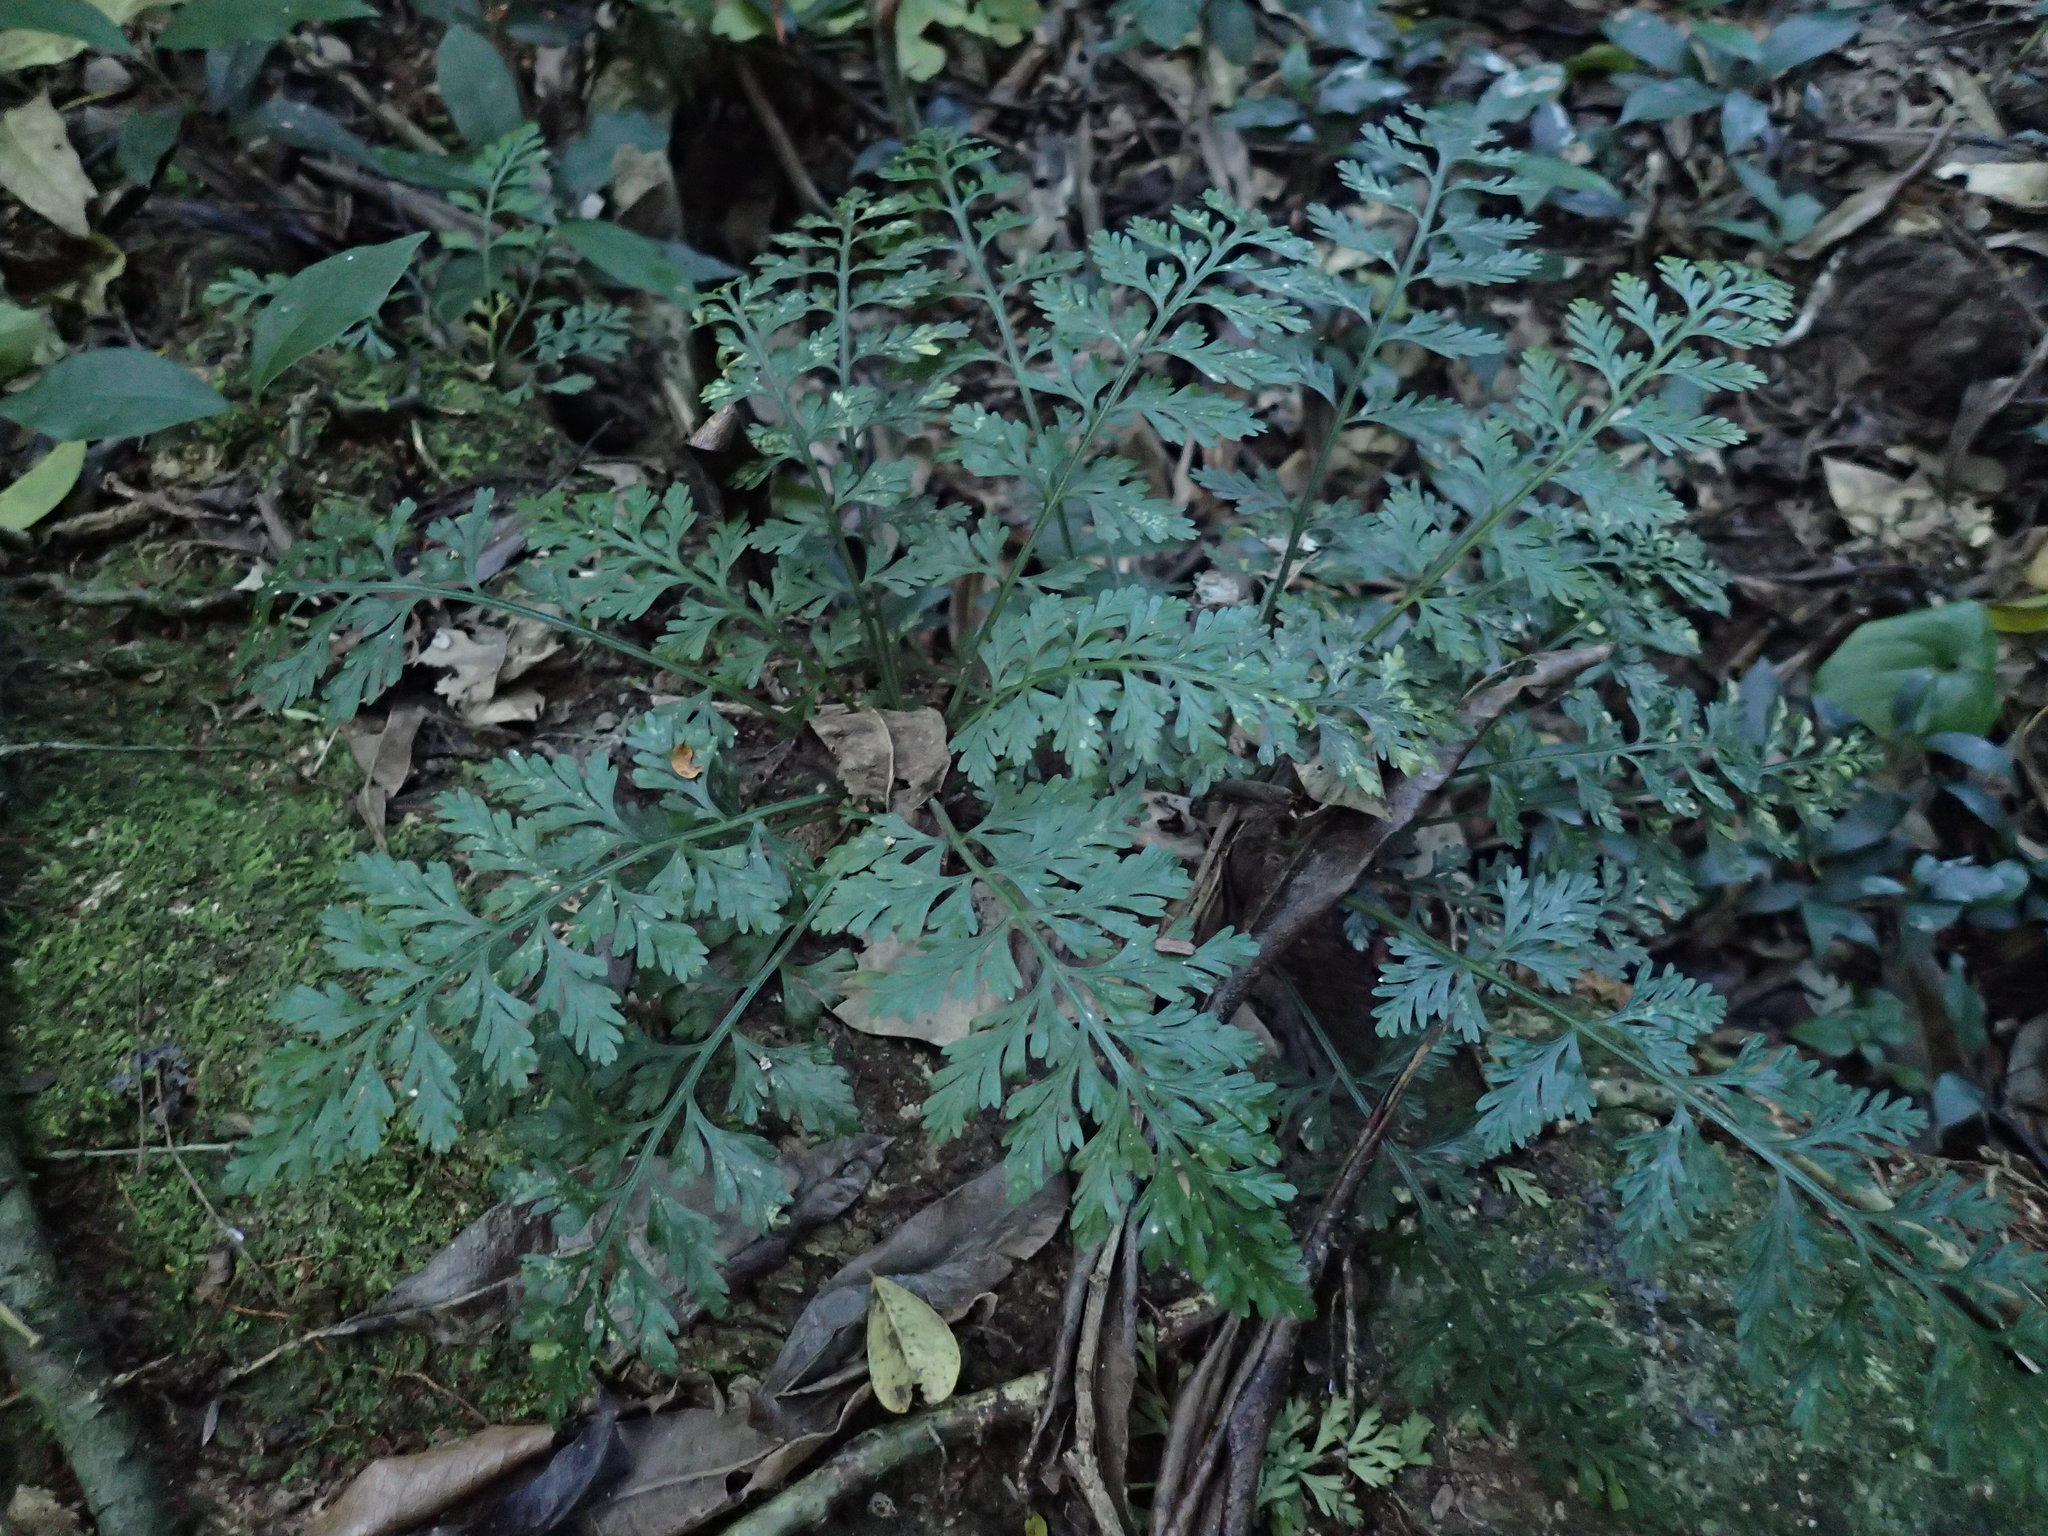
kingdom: Plantae
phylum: Tracheophyta
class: Polypodiopsida
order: Polypodiales
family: Aspleniaceae
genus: Asplenium
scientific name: Asplenium rutifolium
